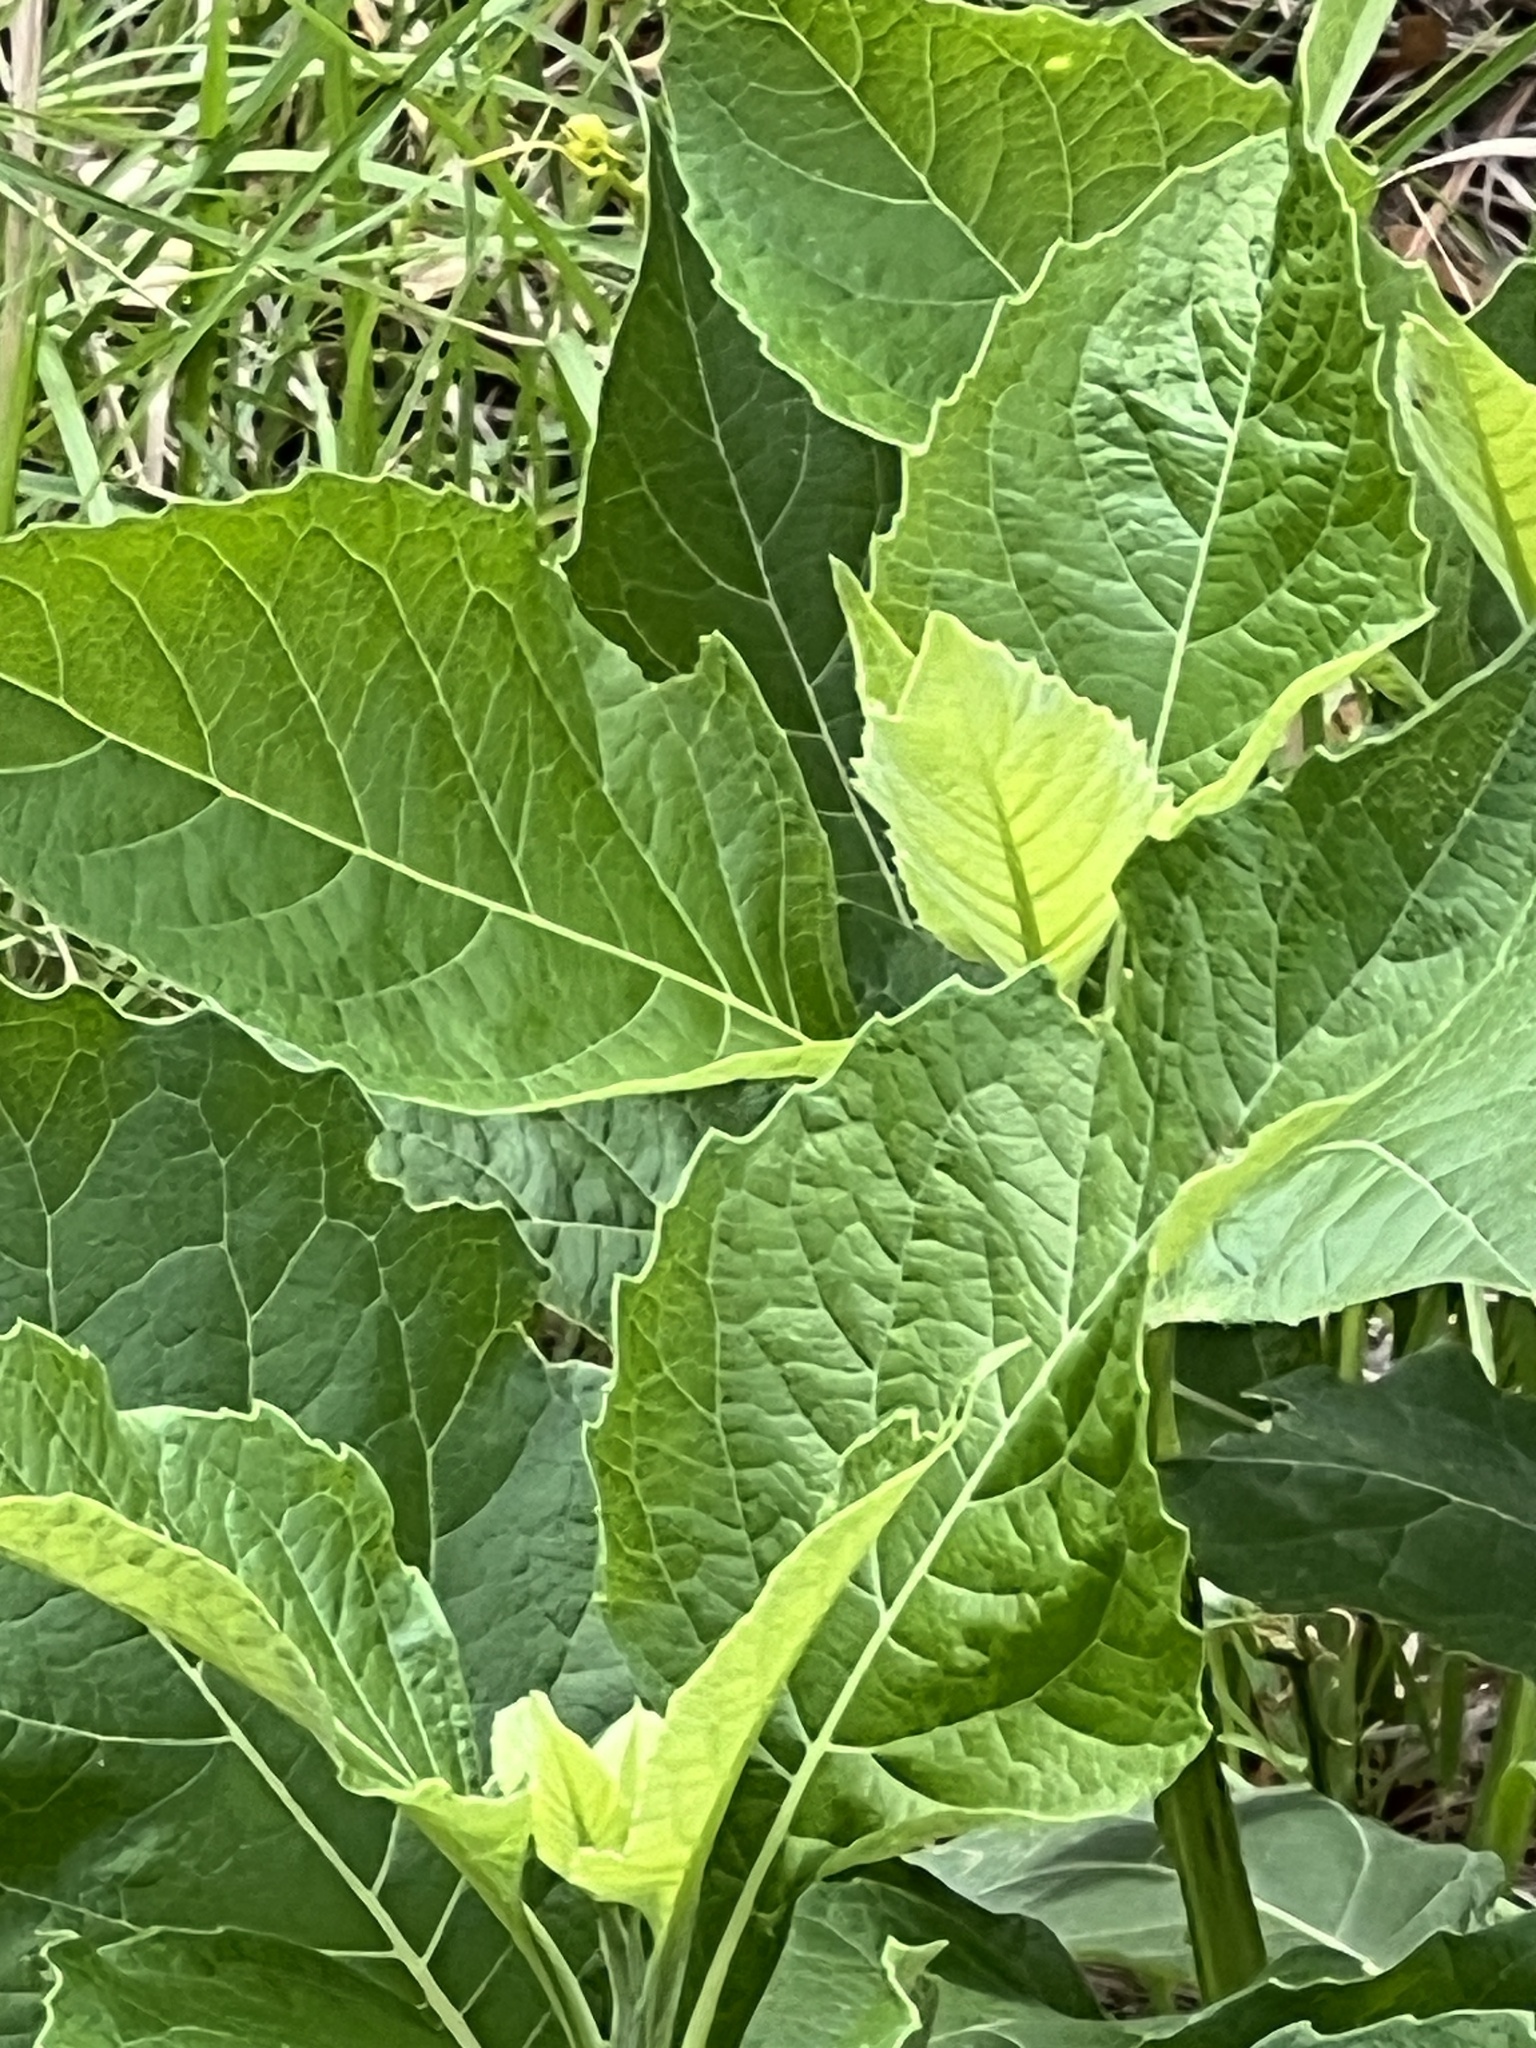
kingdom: Plantae
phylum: Tracheophyta
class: Magnoliopsida
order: Asterales
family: Asteraceae
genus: Verbesina
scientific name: Verbesina virginica
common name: Frostweed
